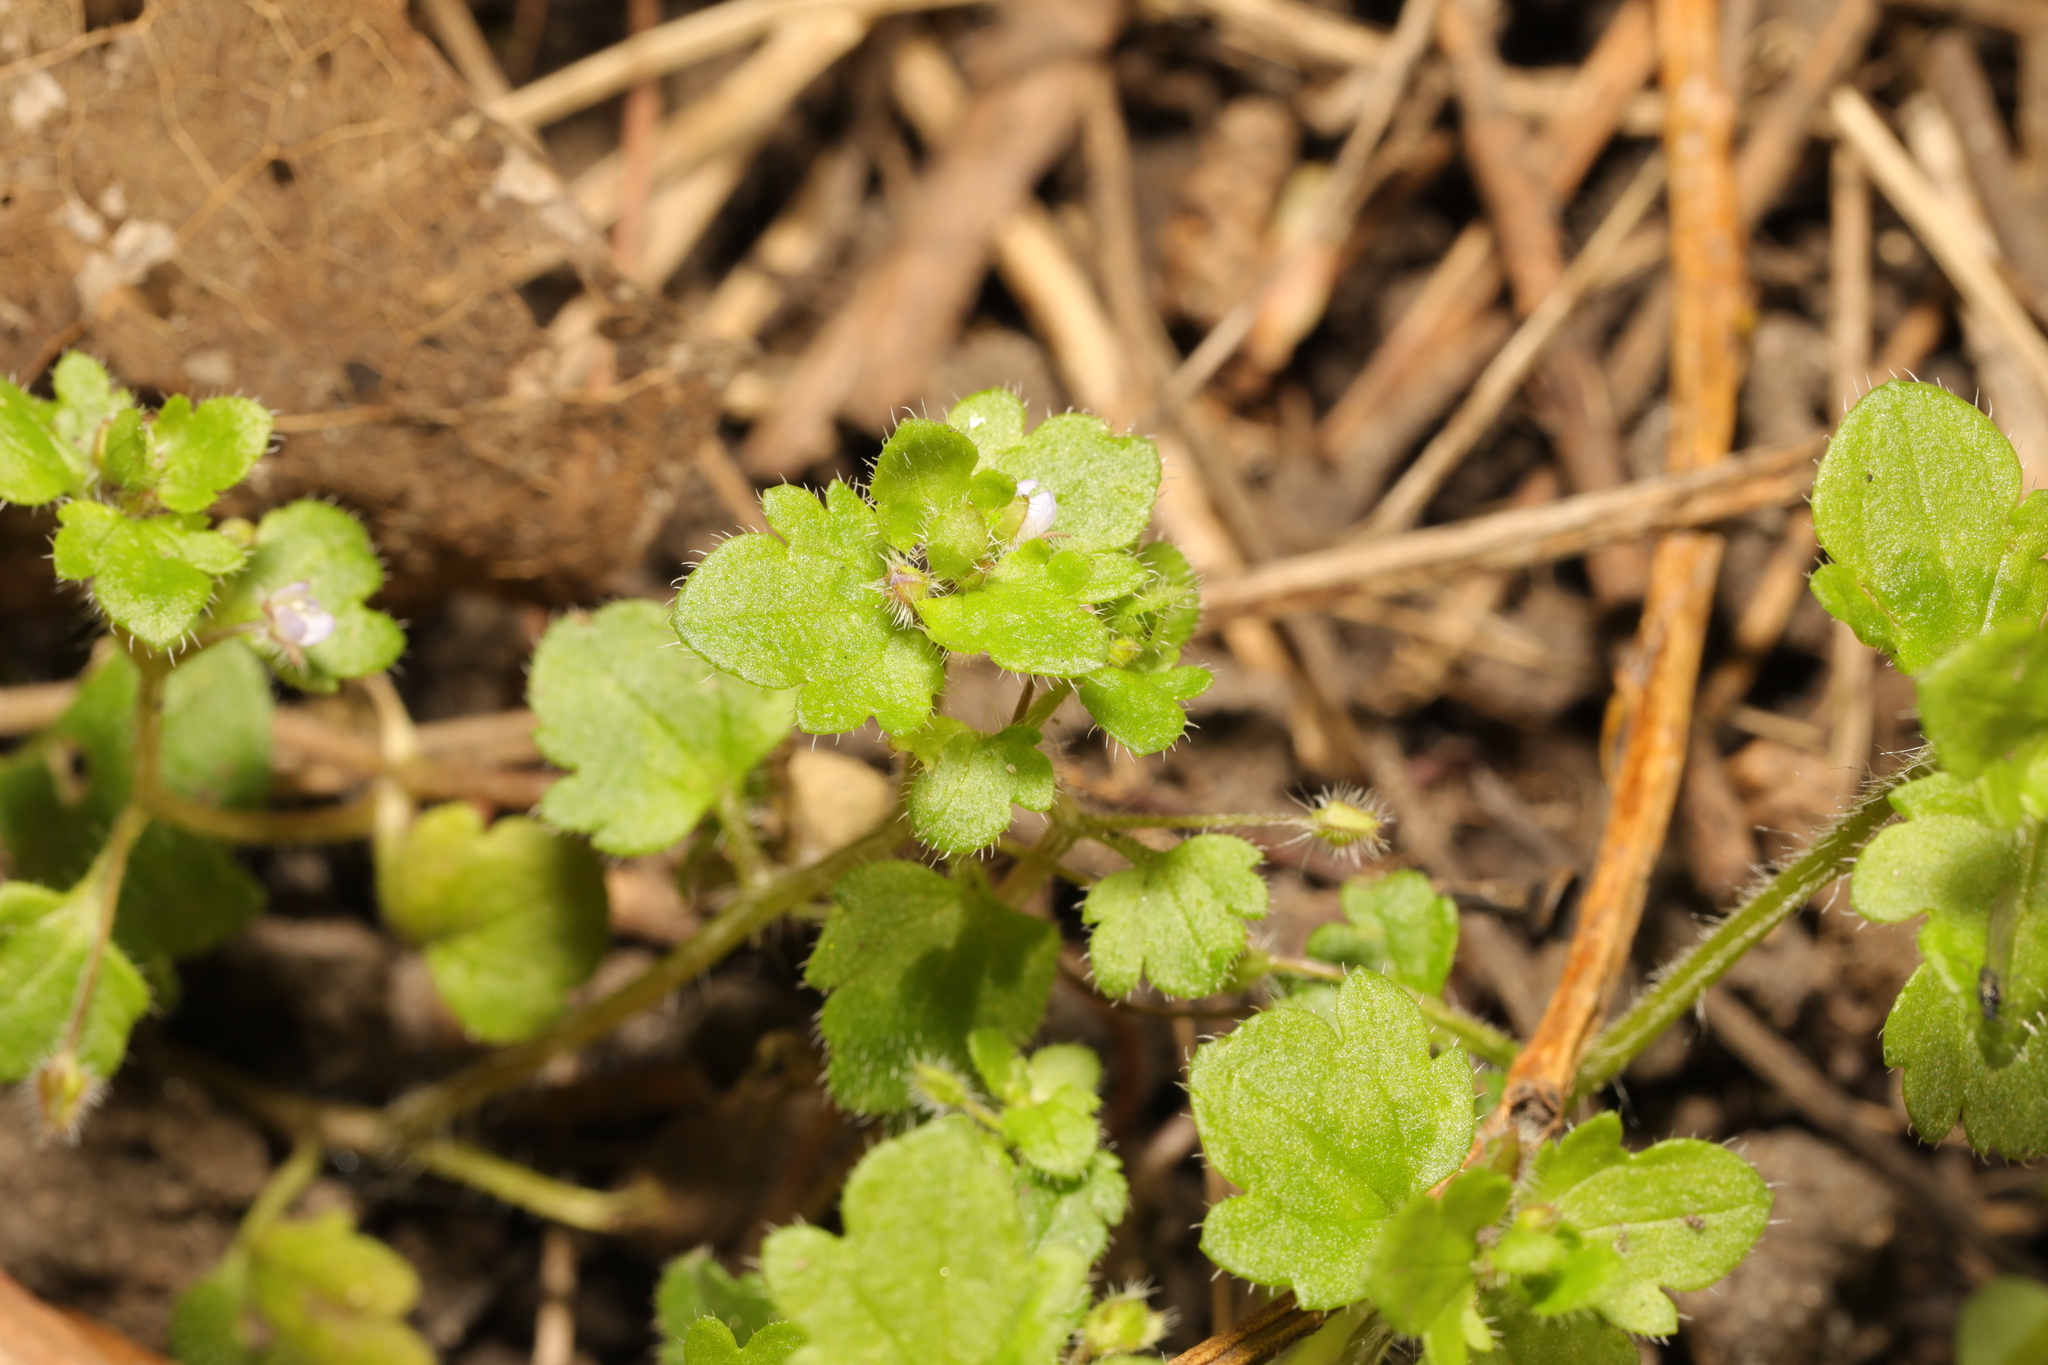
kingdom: Plantae
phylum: Tracheophyta
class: Magnoliopsida
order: Lamiales
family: Plantaginaceae
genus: Veronica
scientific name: Veronica sublobata
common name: False ivy-leaved speedwell
